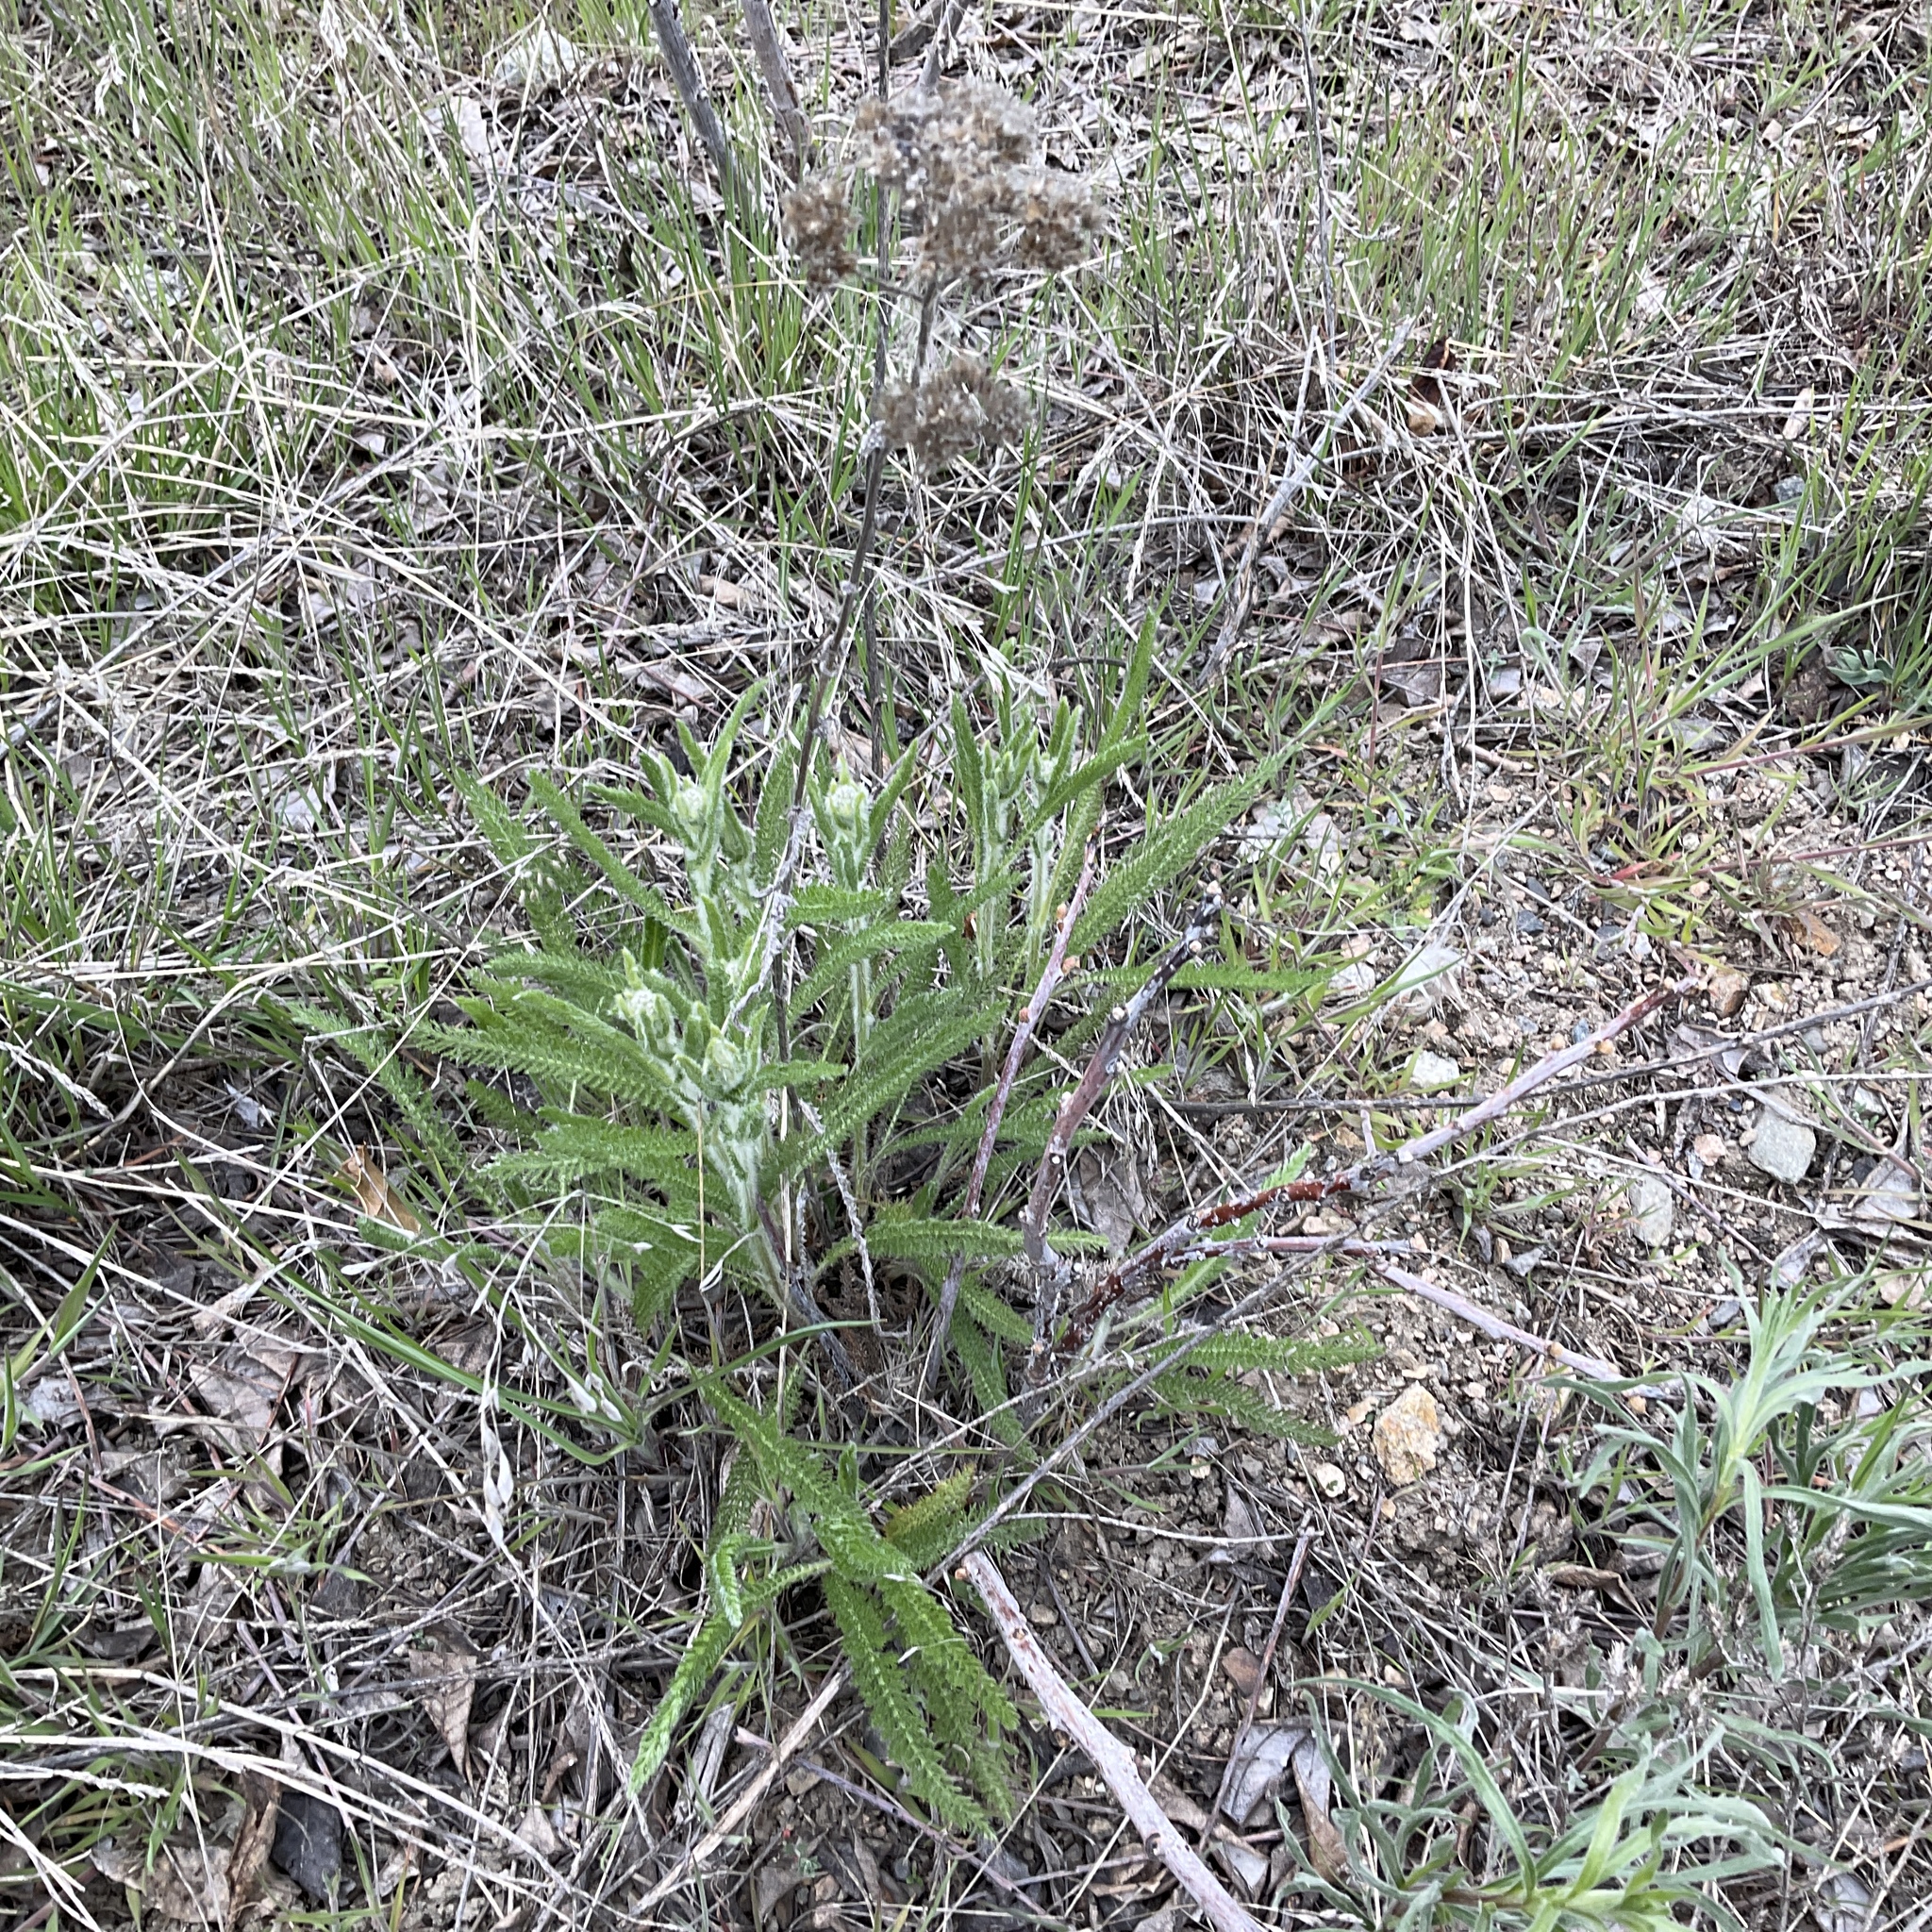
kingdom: Plantae
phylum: Tracheophyta
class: Magnoliopsida
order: Asterales
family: Asteraceae
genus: Achillea
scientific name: Achillea millefolium
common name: Yarrow
